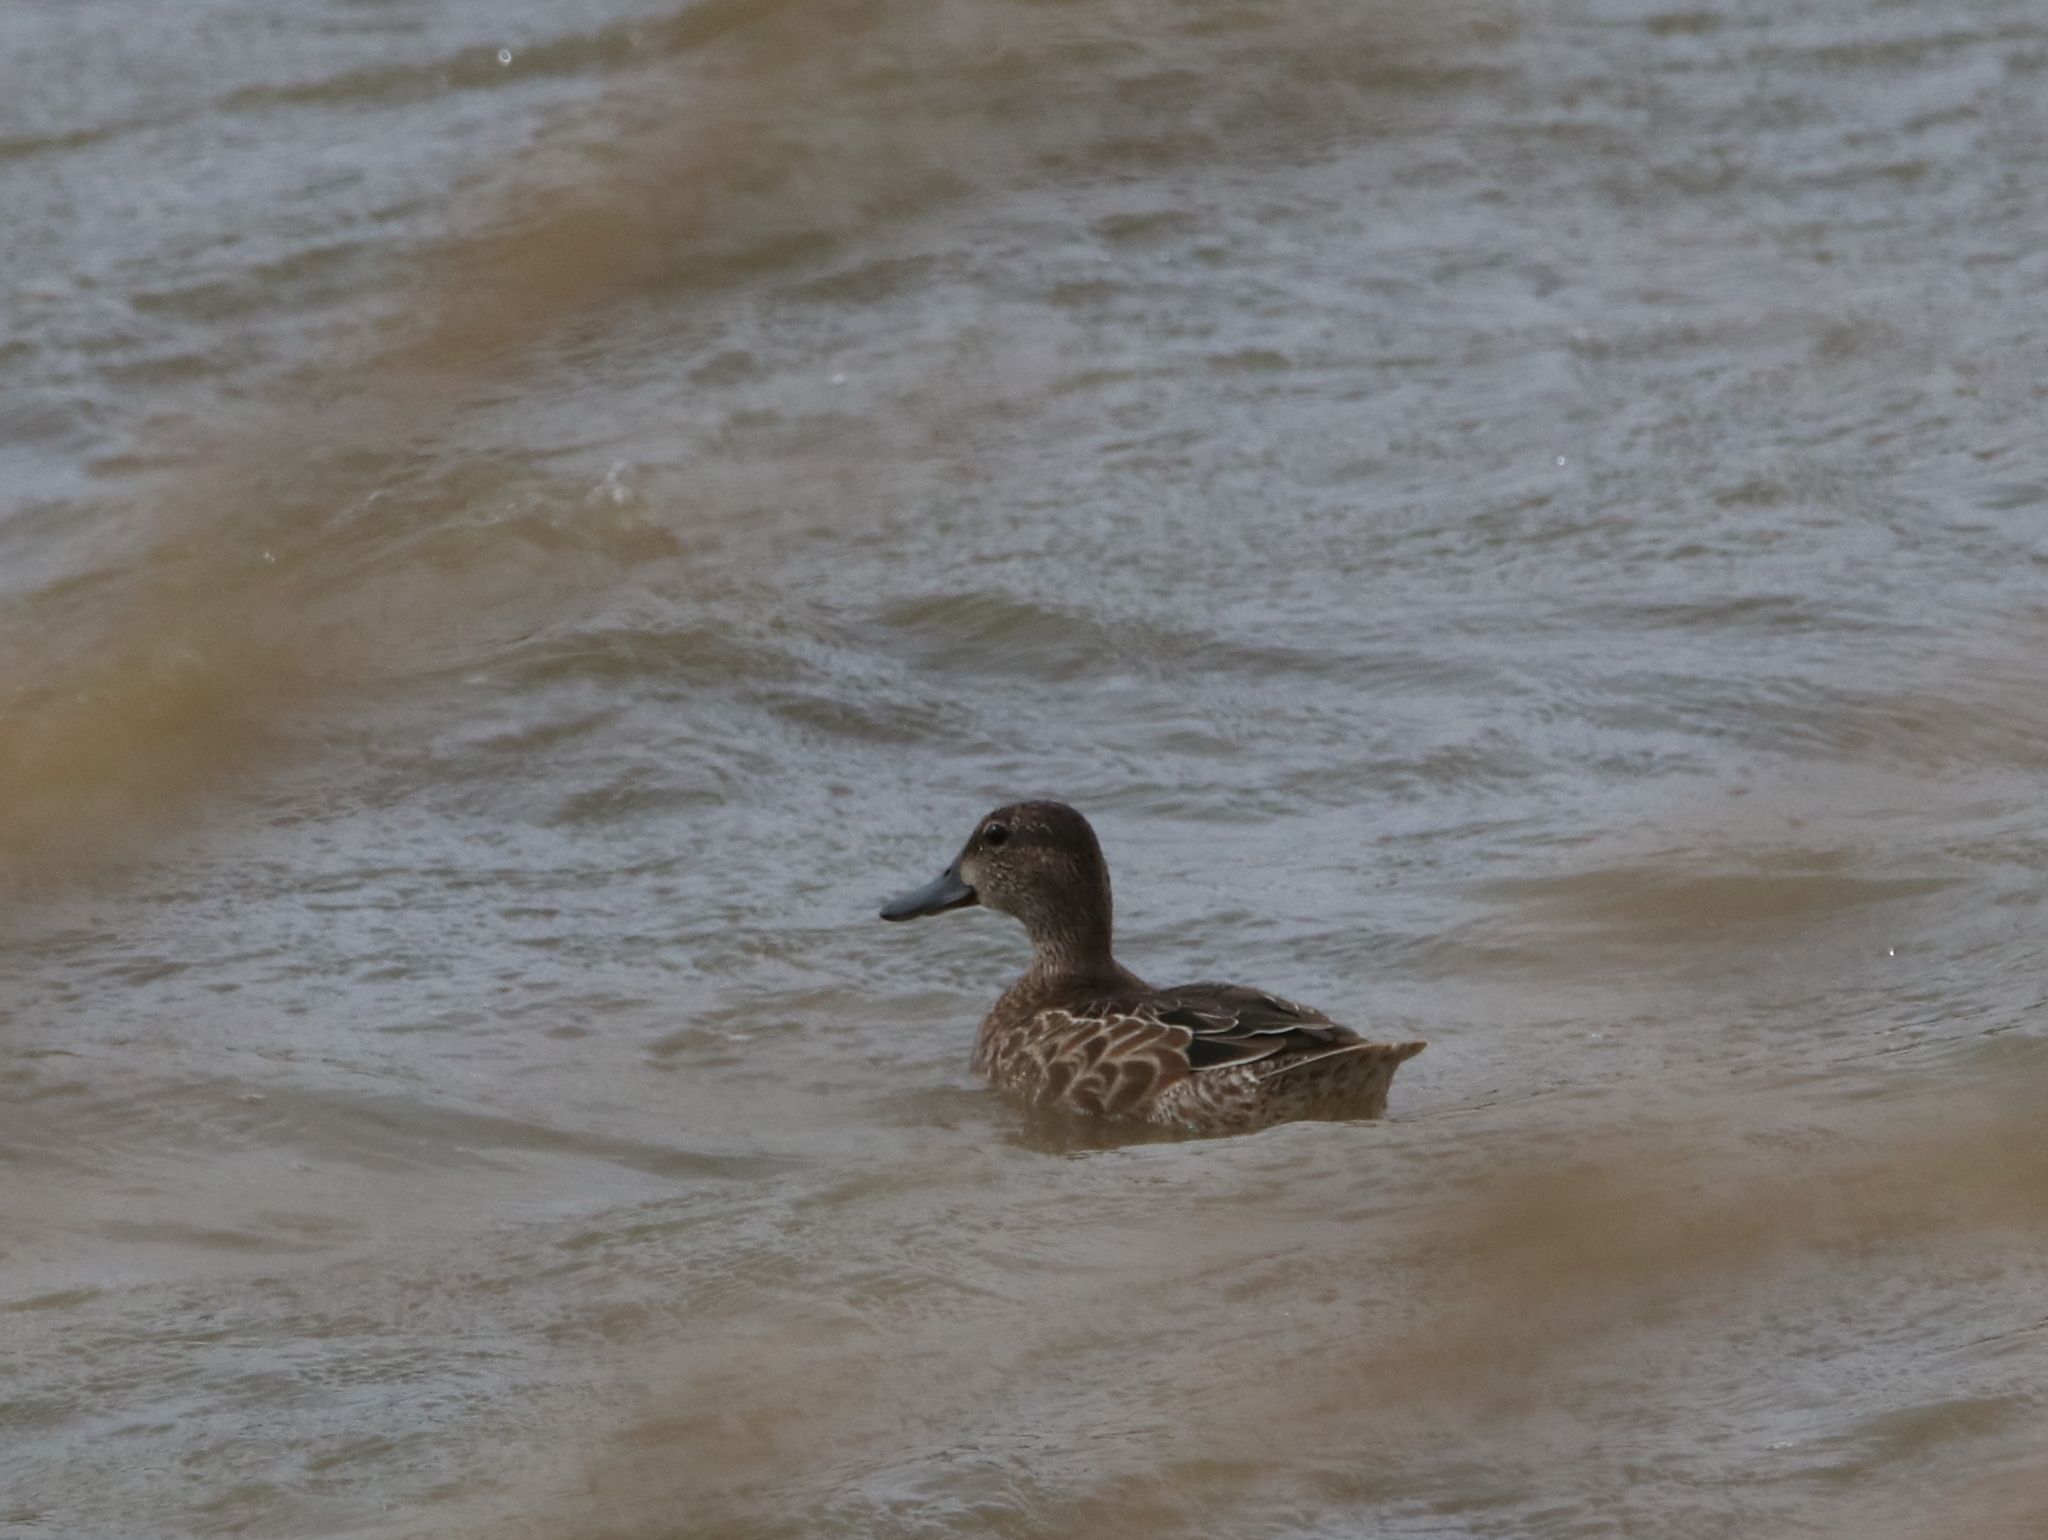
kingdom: Animalia
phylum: Chordata
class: Aves
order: Anseriformes
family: Anatidae
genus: Spatula
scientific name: Spatula discors
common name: Blue-winged teal
